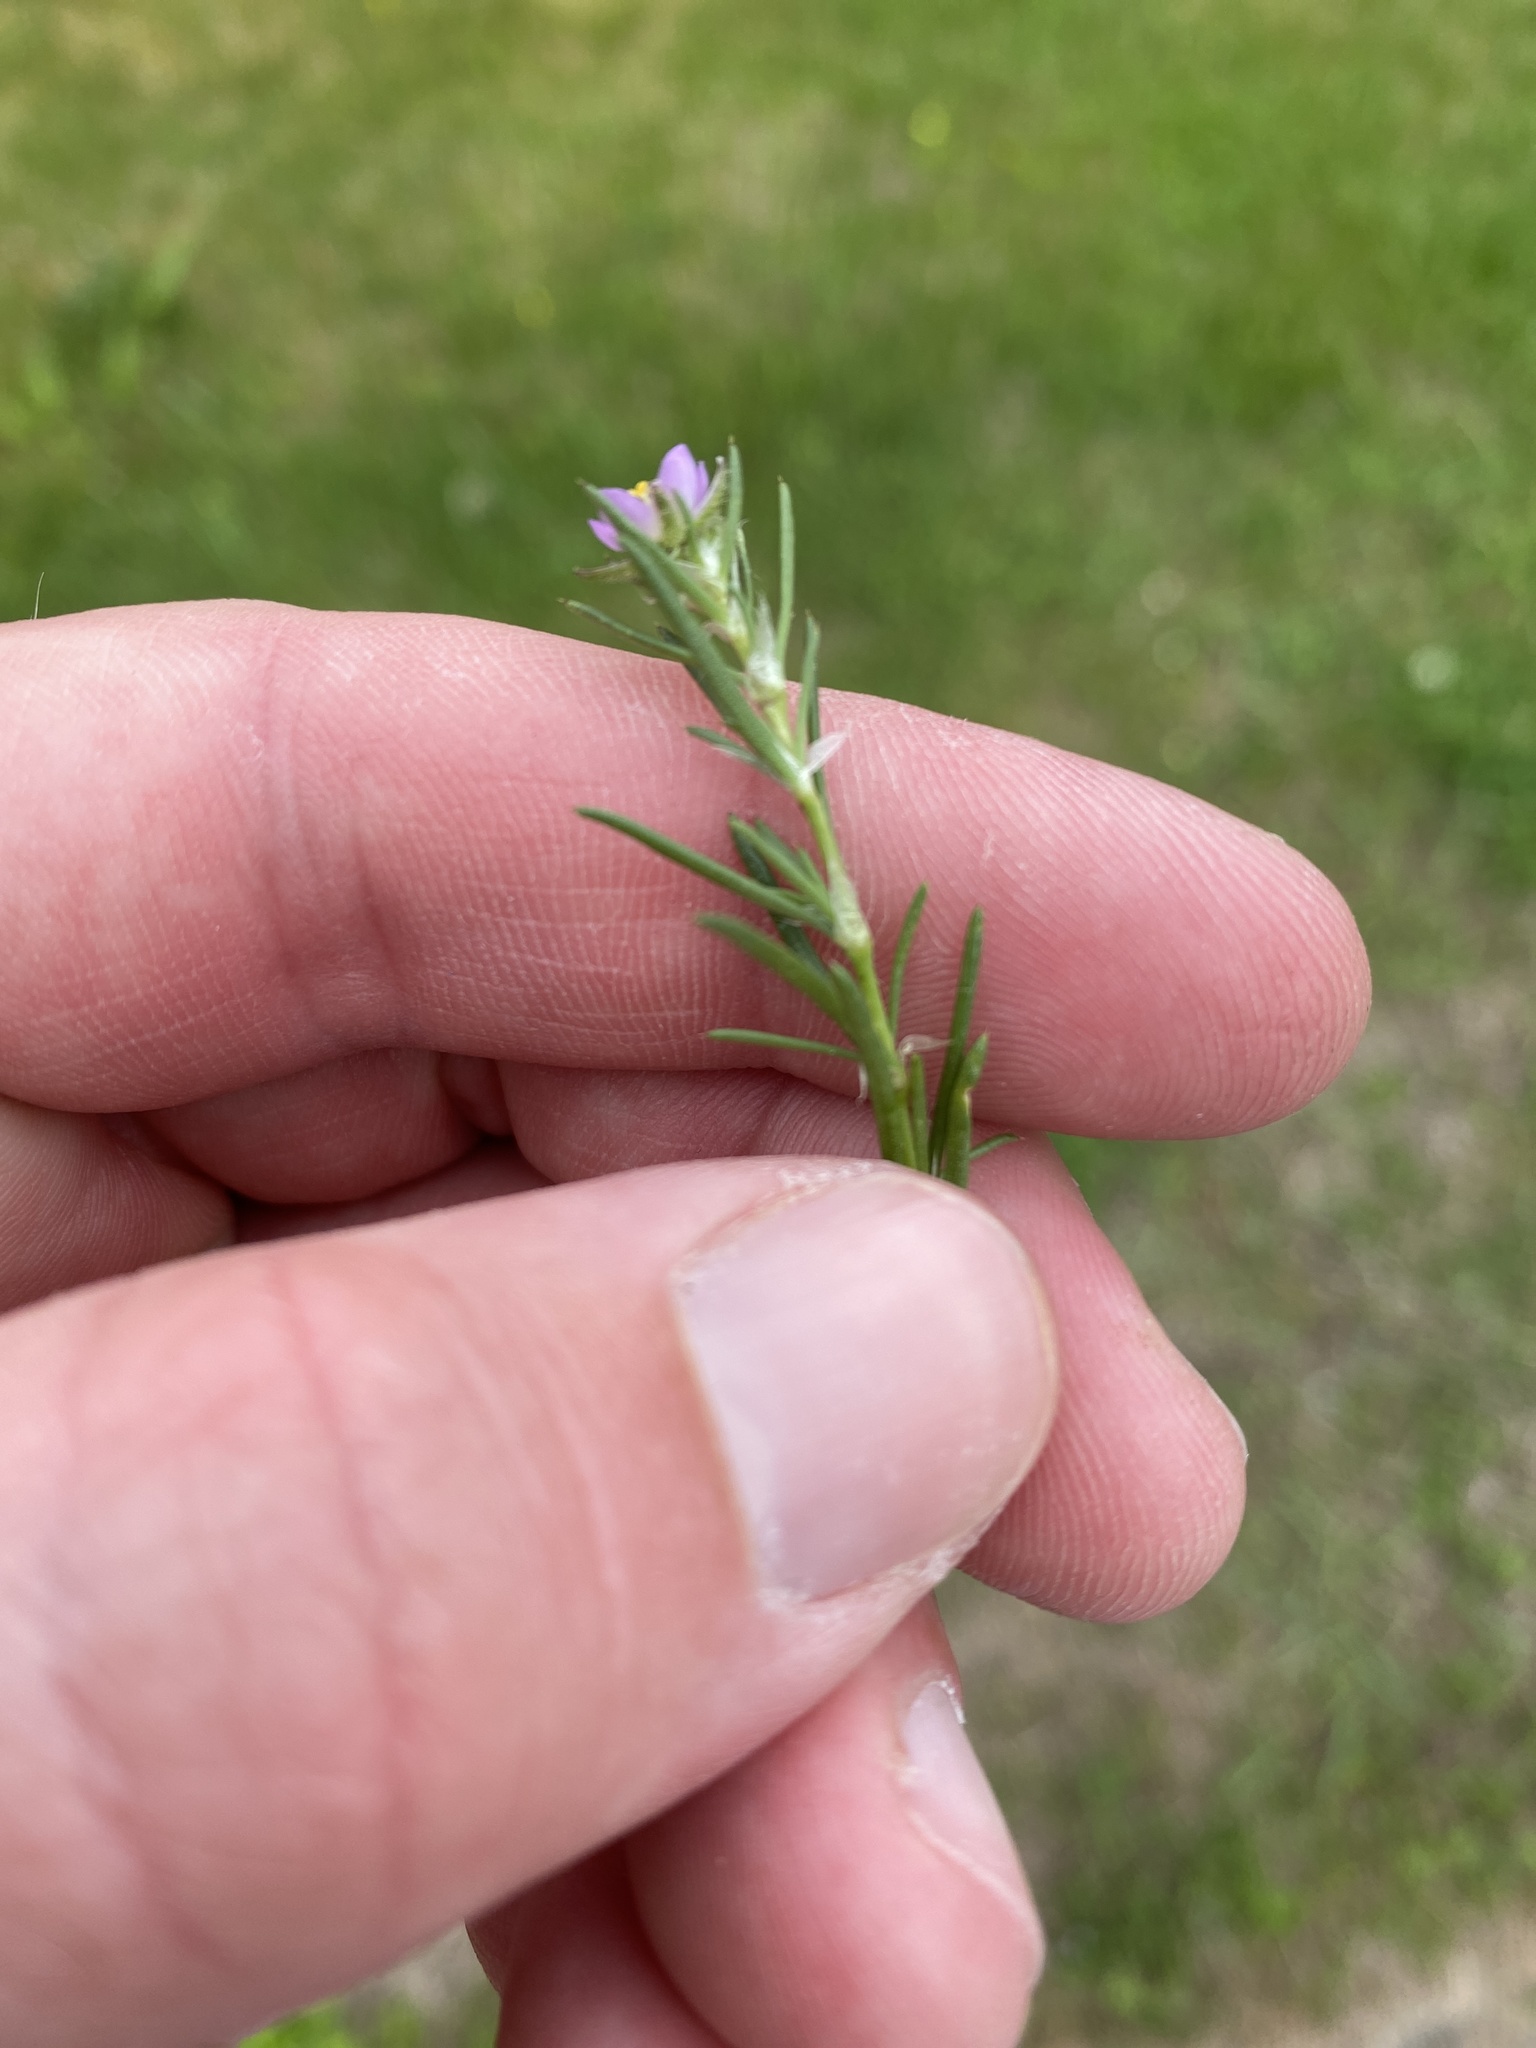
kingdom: Plantae
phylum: Tracheophyta
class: Magnoliopsida
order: Caryophyllales
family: Caryophyllaceae
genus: Spergularia
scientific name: Spergularia rubra
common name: Red sand-spurrey
